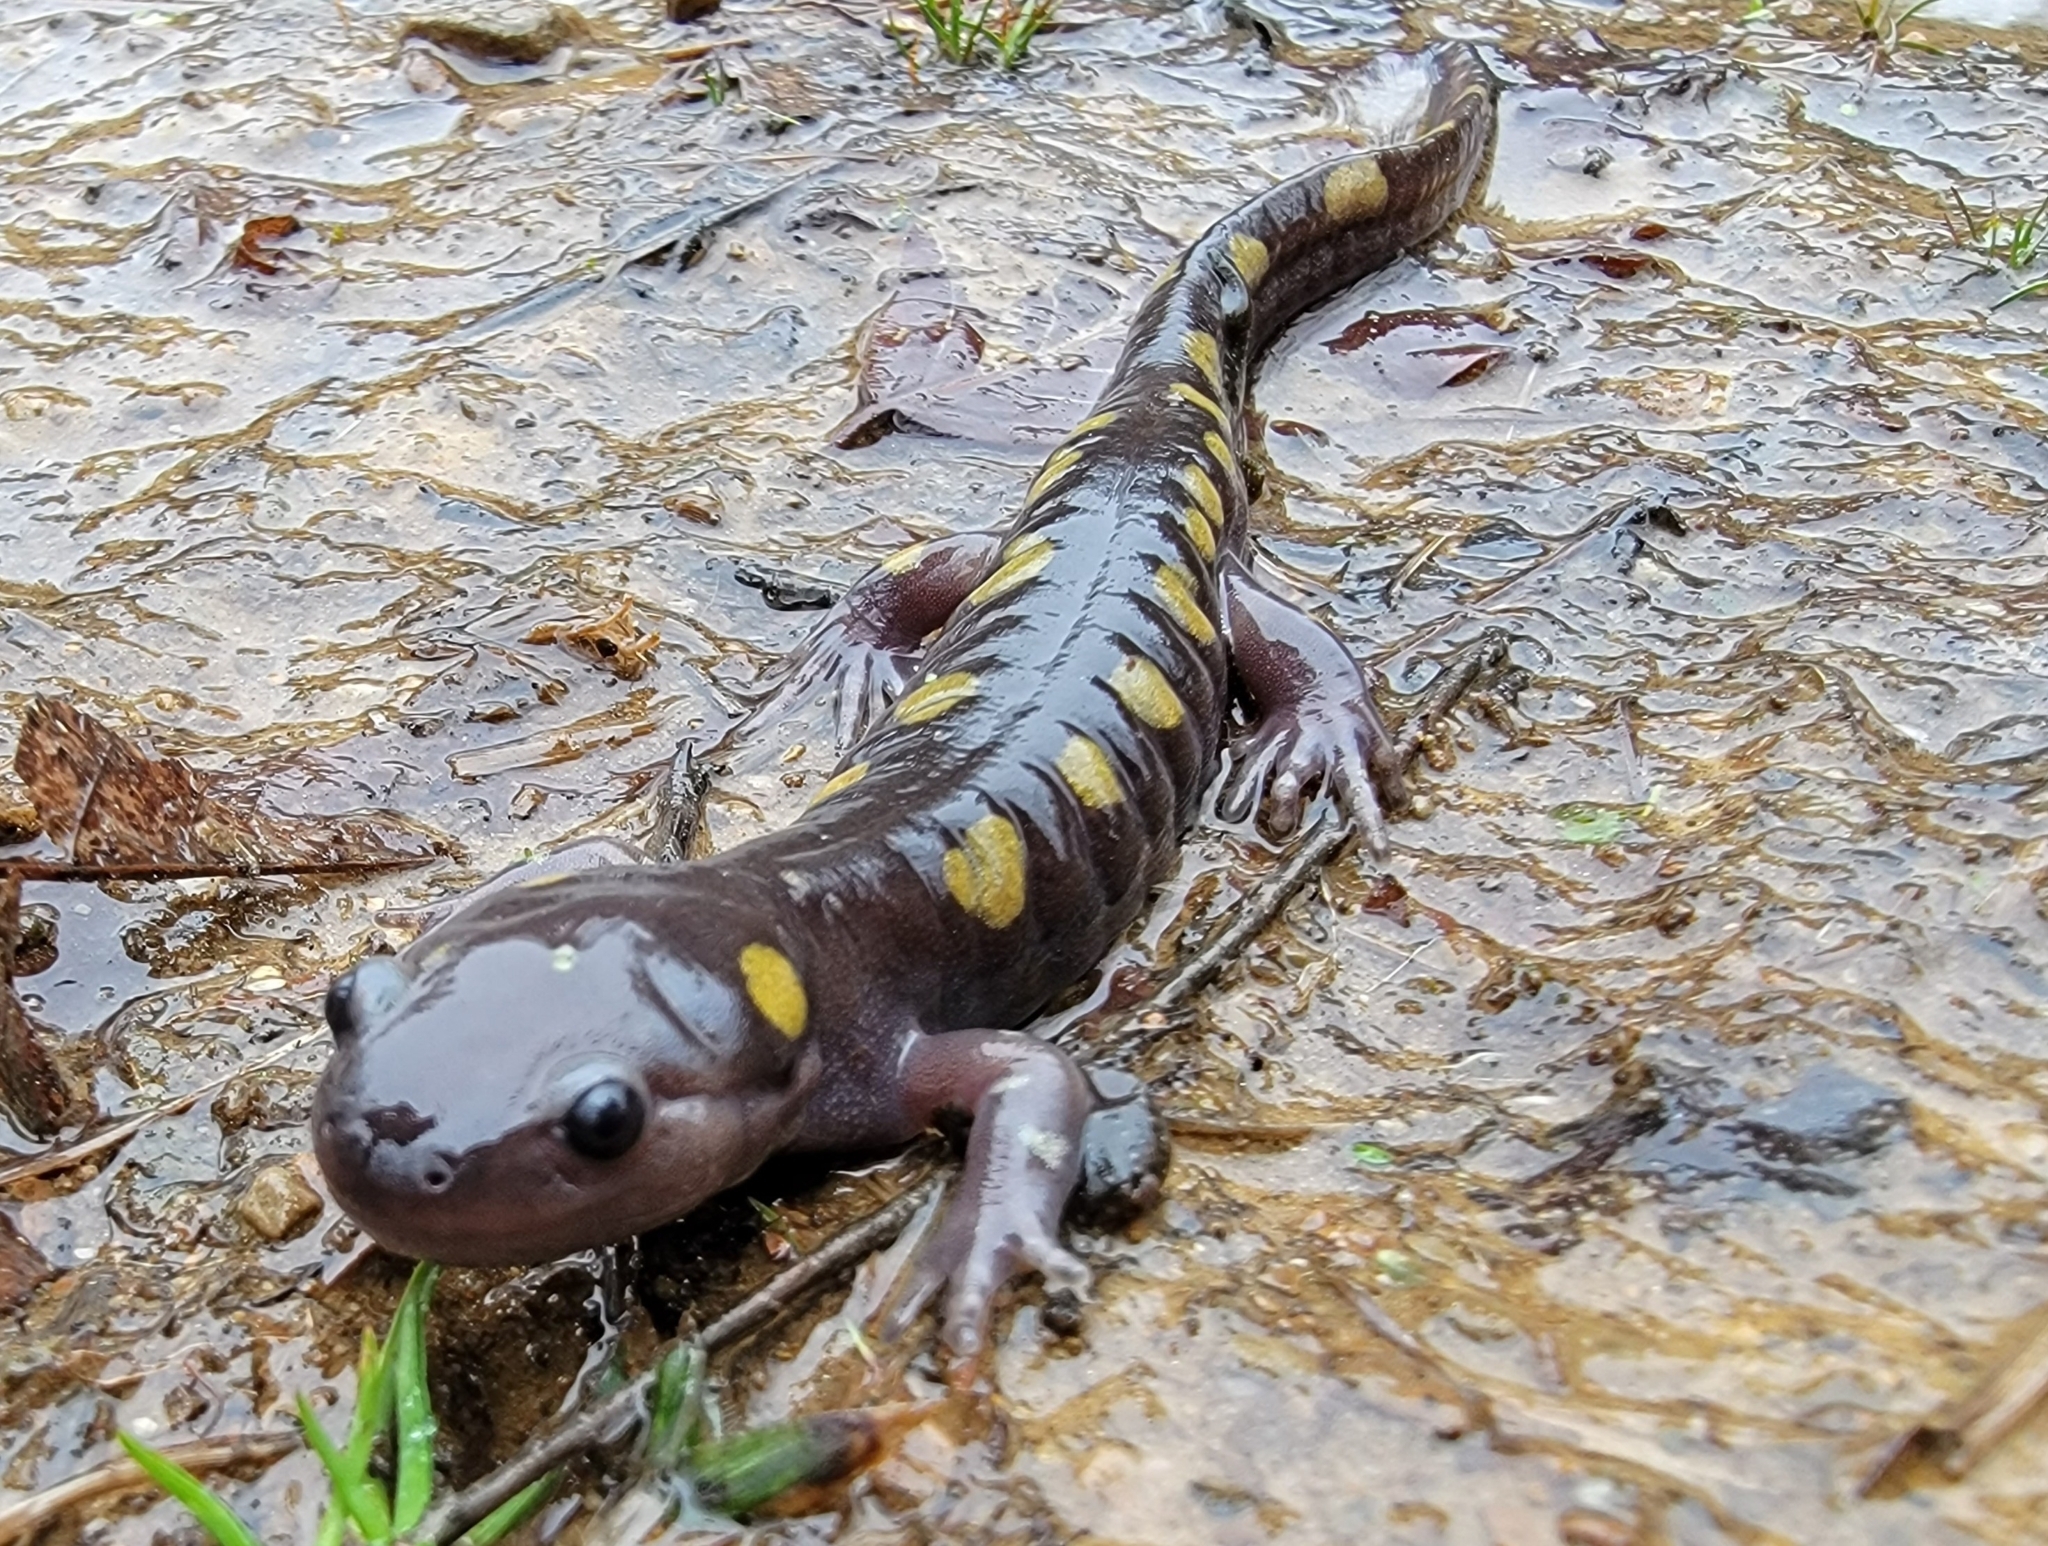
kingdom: Animalia
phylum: Chordata
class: Amphibia
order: Caudata
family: Ambystomatidae
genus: Ambystoma
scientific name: Ambystoma maculatum
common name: Spotted salamander
